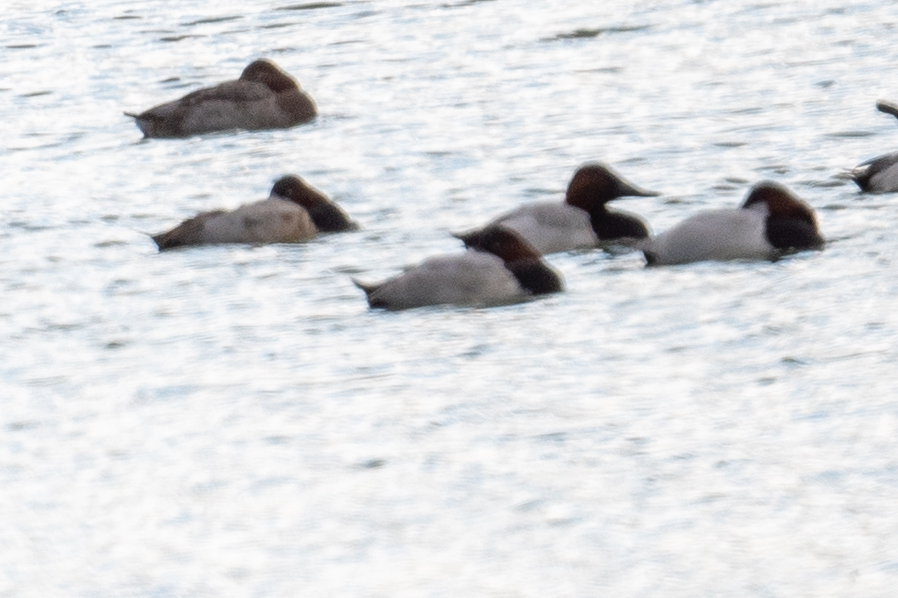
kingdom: Animalia
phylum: Chordata
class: Aves
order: Anseriformes
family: Anatidae
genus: Aythya
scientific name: Aythya valisineria
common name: Canvasback
